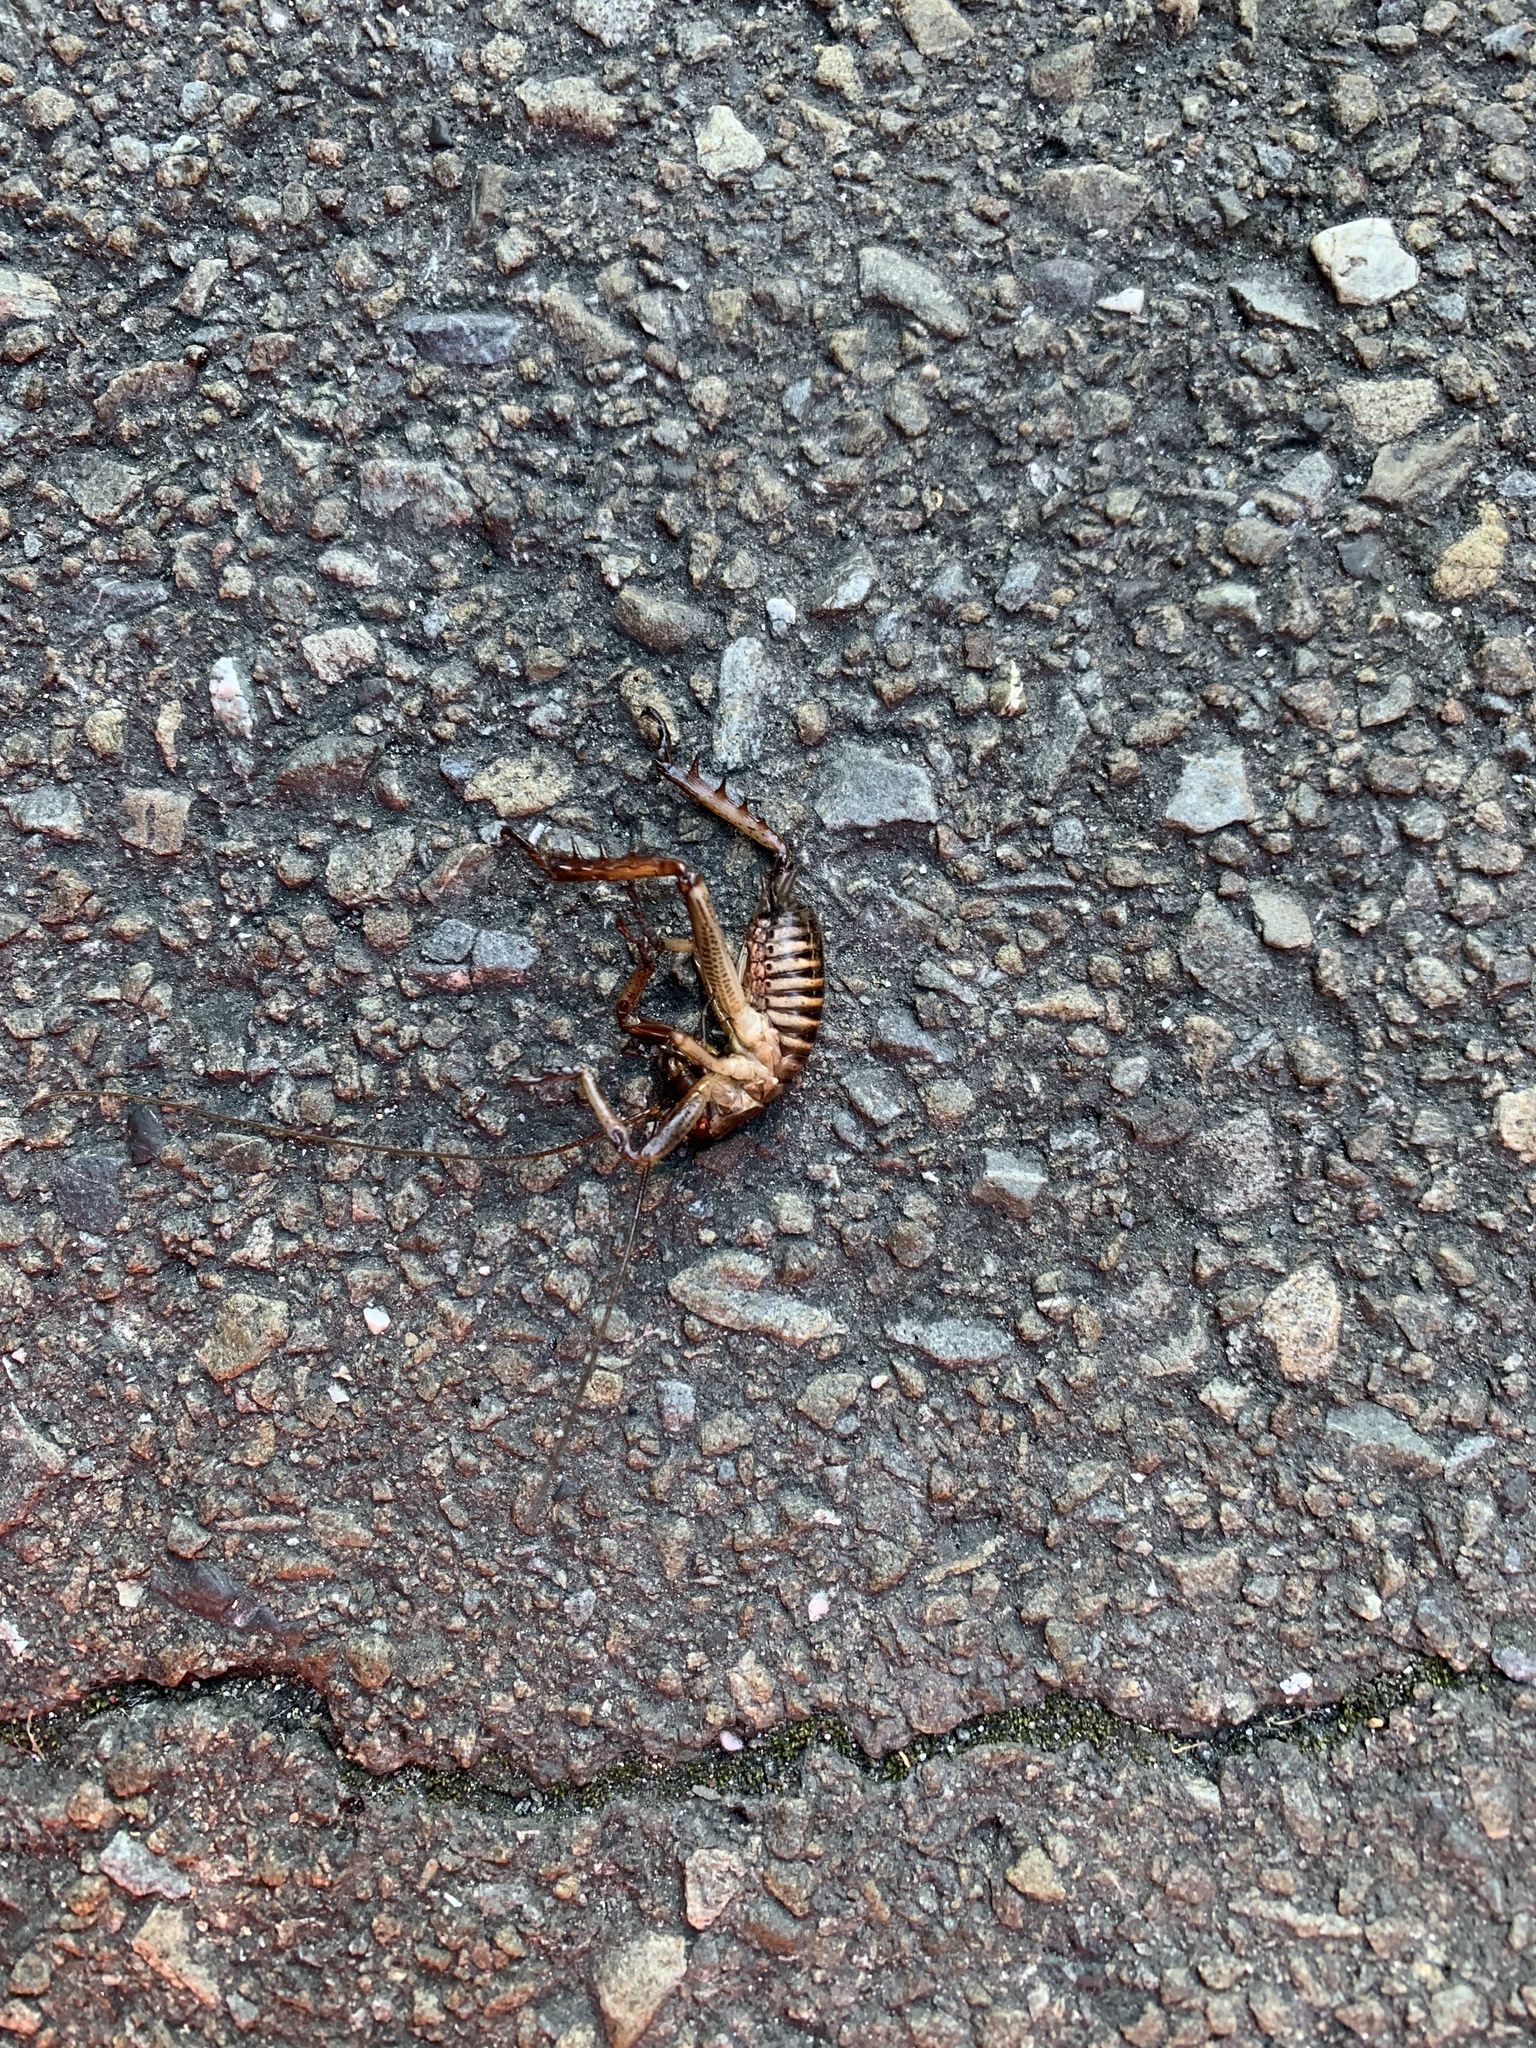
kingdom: Animalia
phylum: Arthropoda
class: Insecta
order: Orthoptera
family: Anostostomatidae
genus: Hemideina
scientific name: Hemideina crassidens
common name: Wellington tree weta
